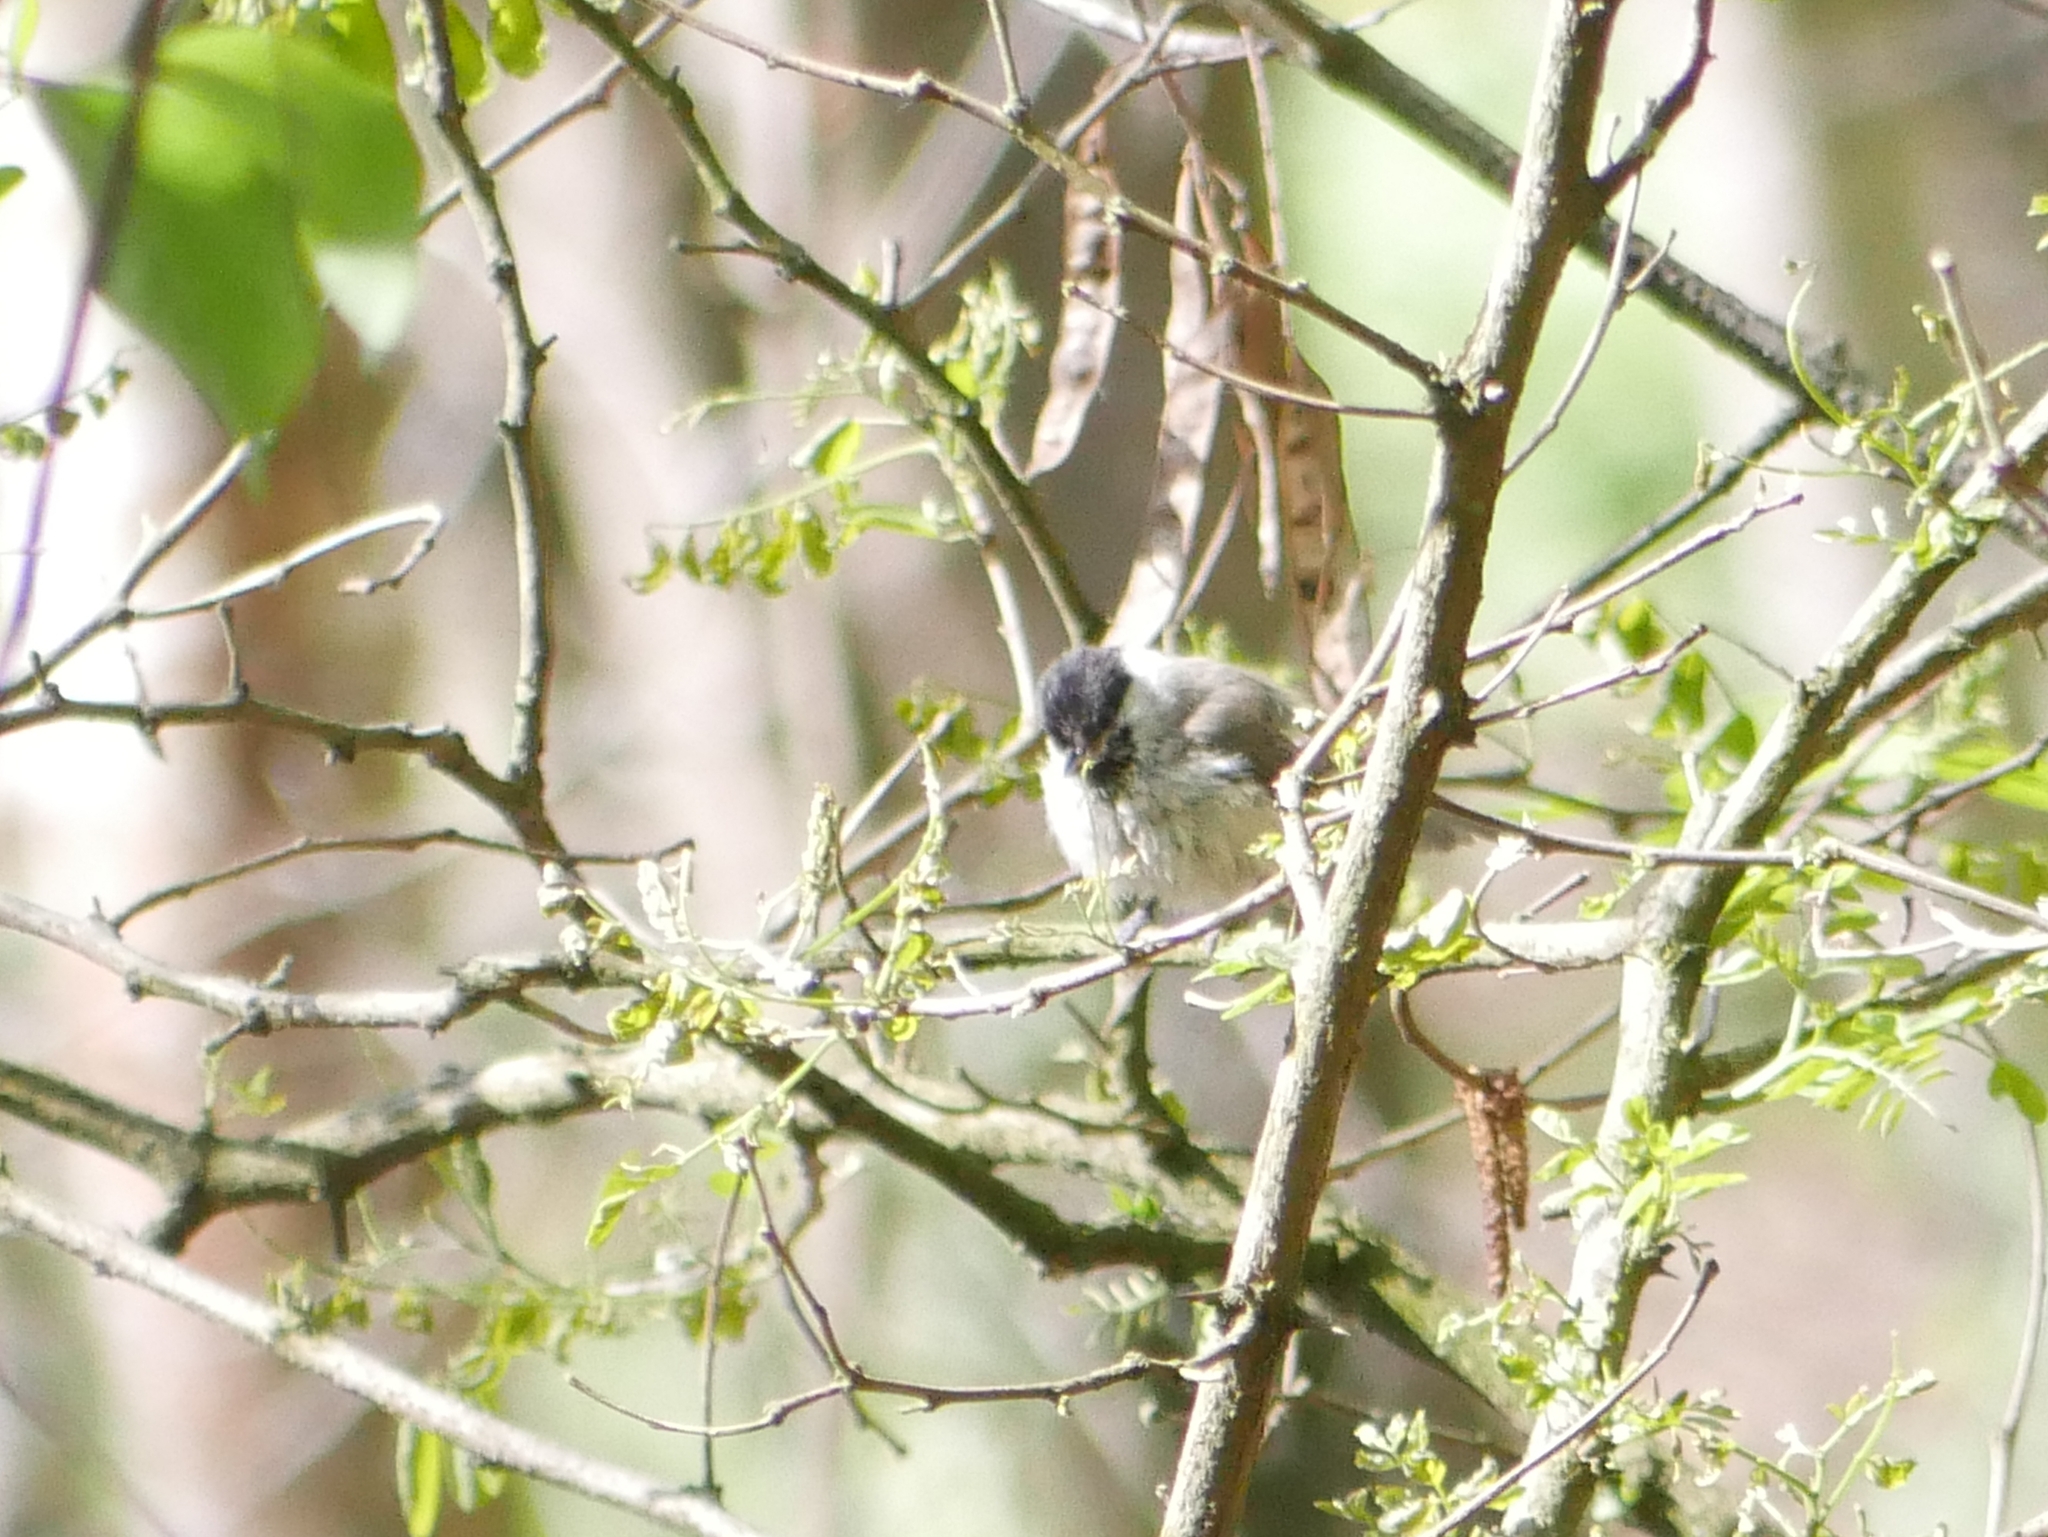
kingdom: Animalia
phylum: Chordata
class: Aves
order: Passeriformes
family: Paridae
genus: Poecile
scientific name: Poecile
